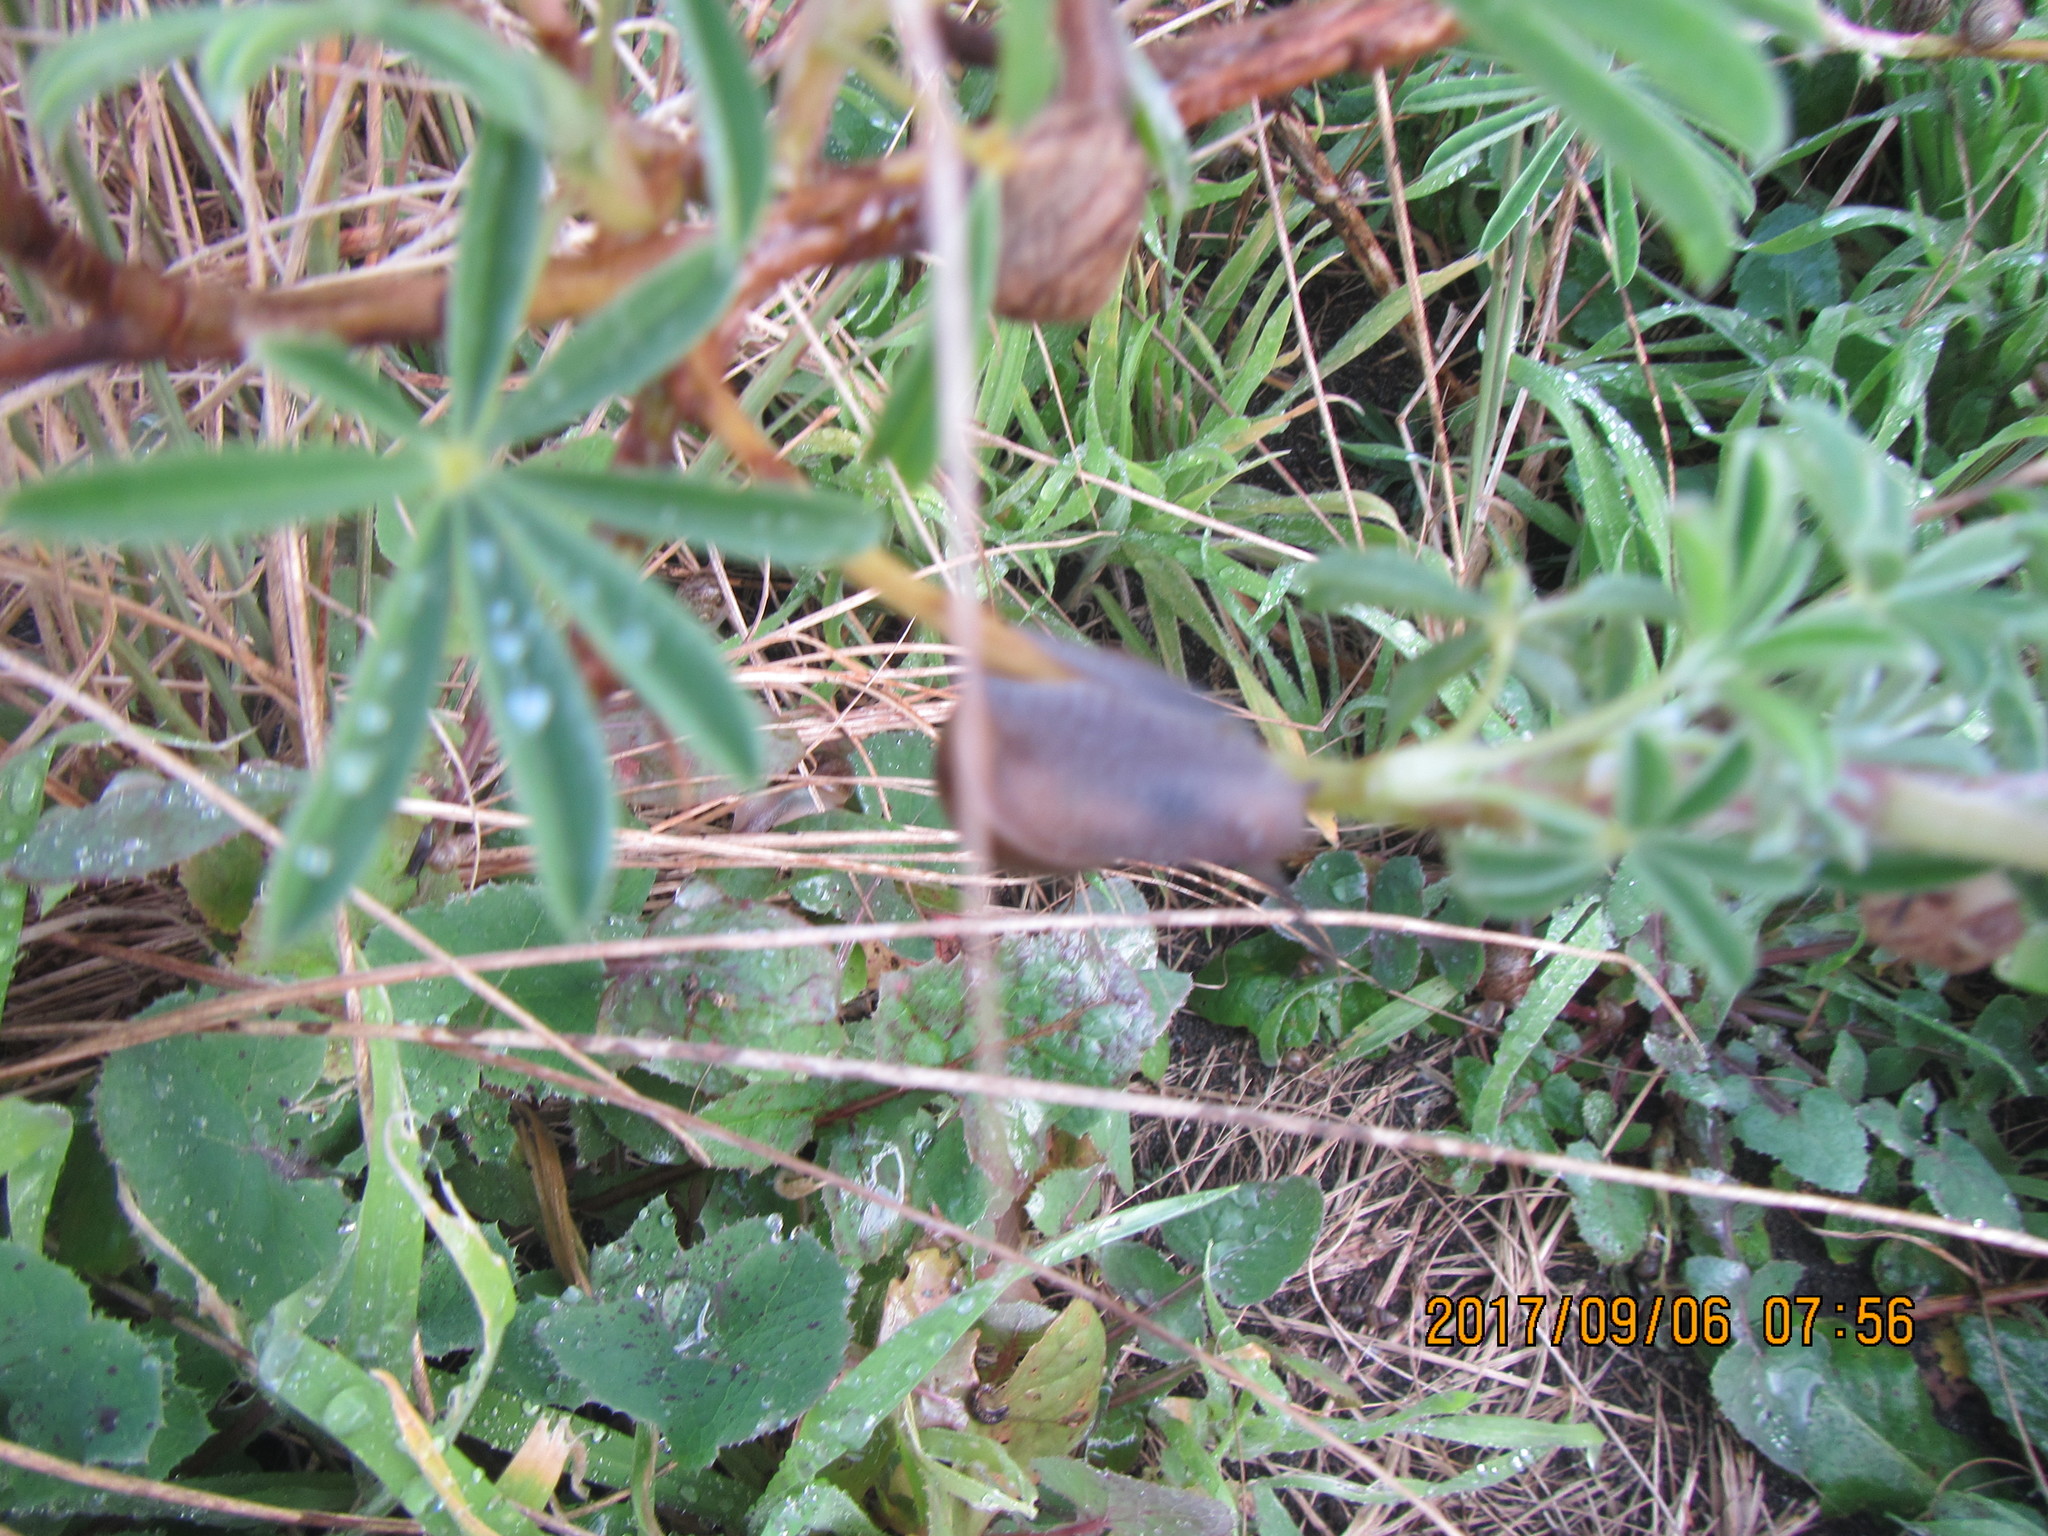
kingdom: Animalia
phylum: Mollusca
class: Gastropoda
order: Stylommatophora
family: Helicidae
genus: Cornu
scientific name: Cornu aspersum
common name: Brown garden snail
